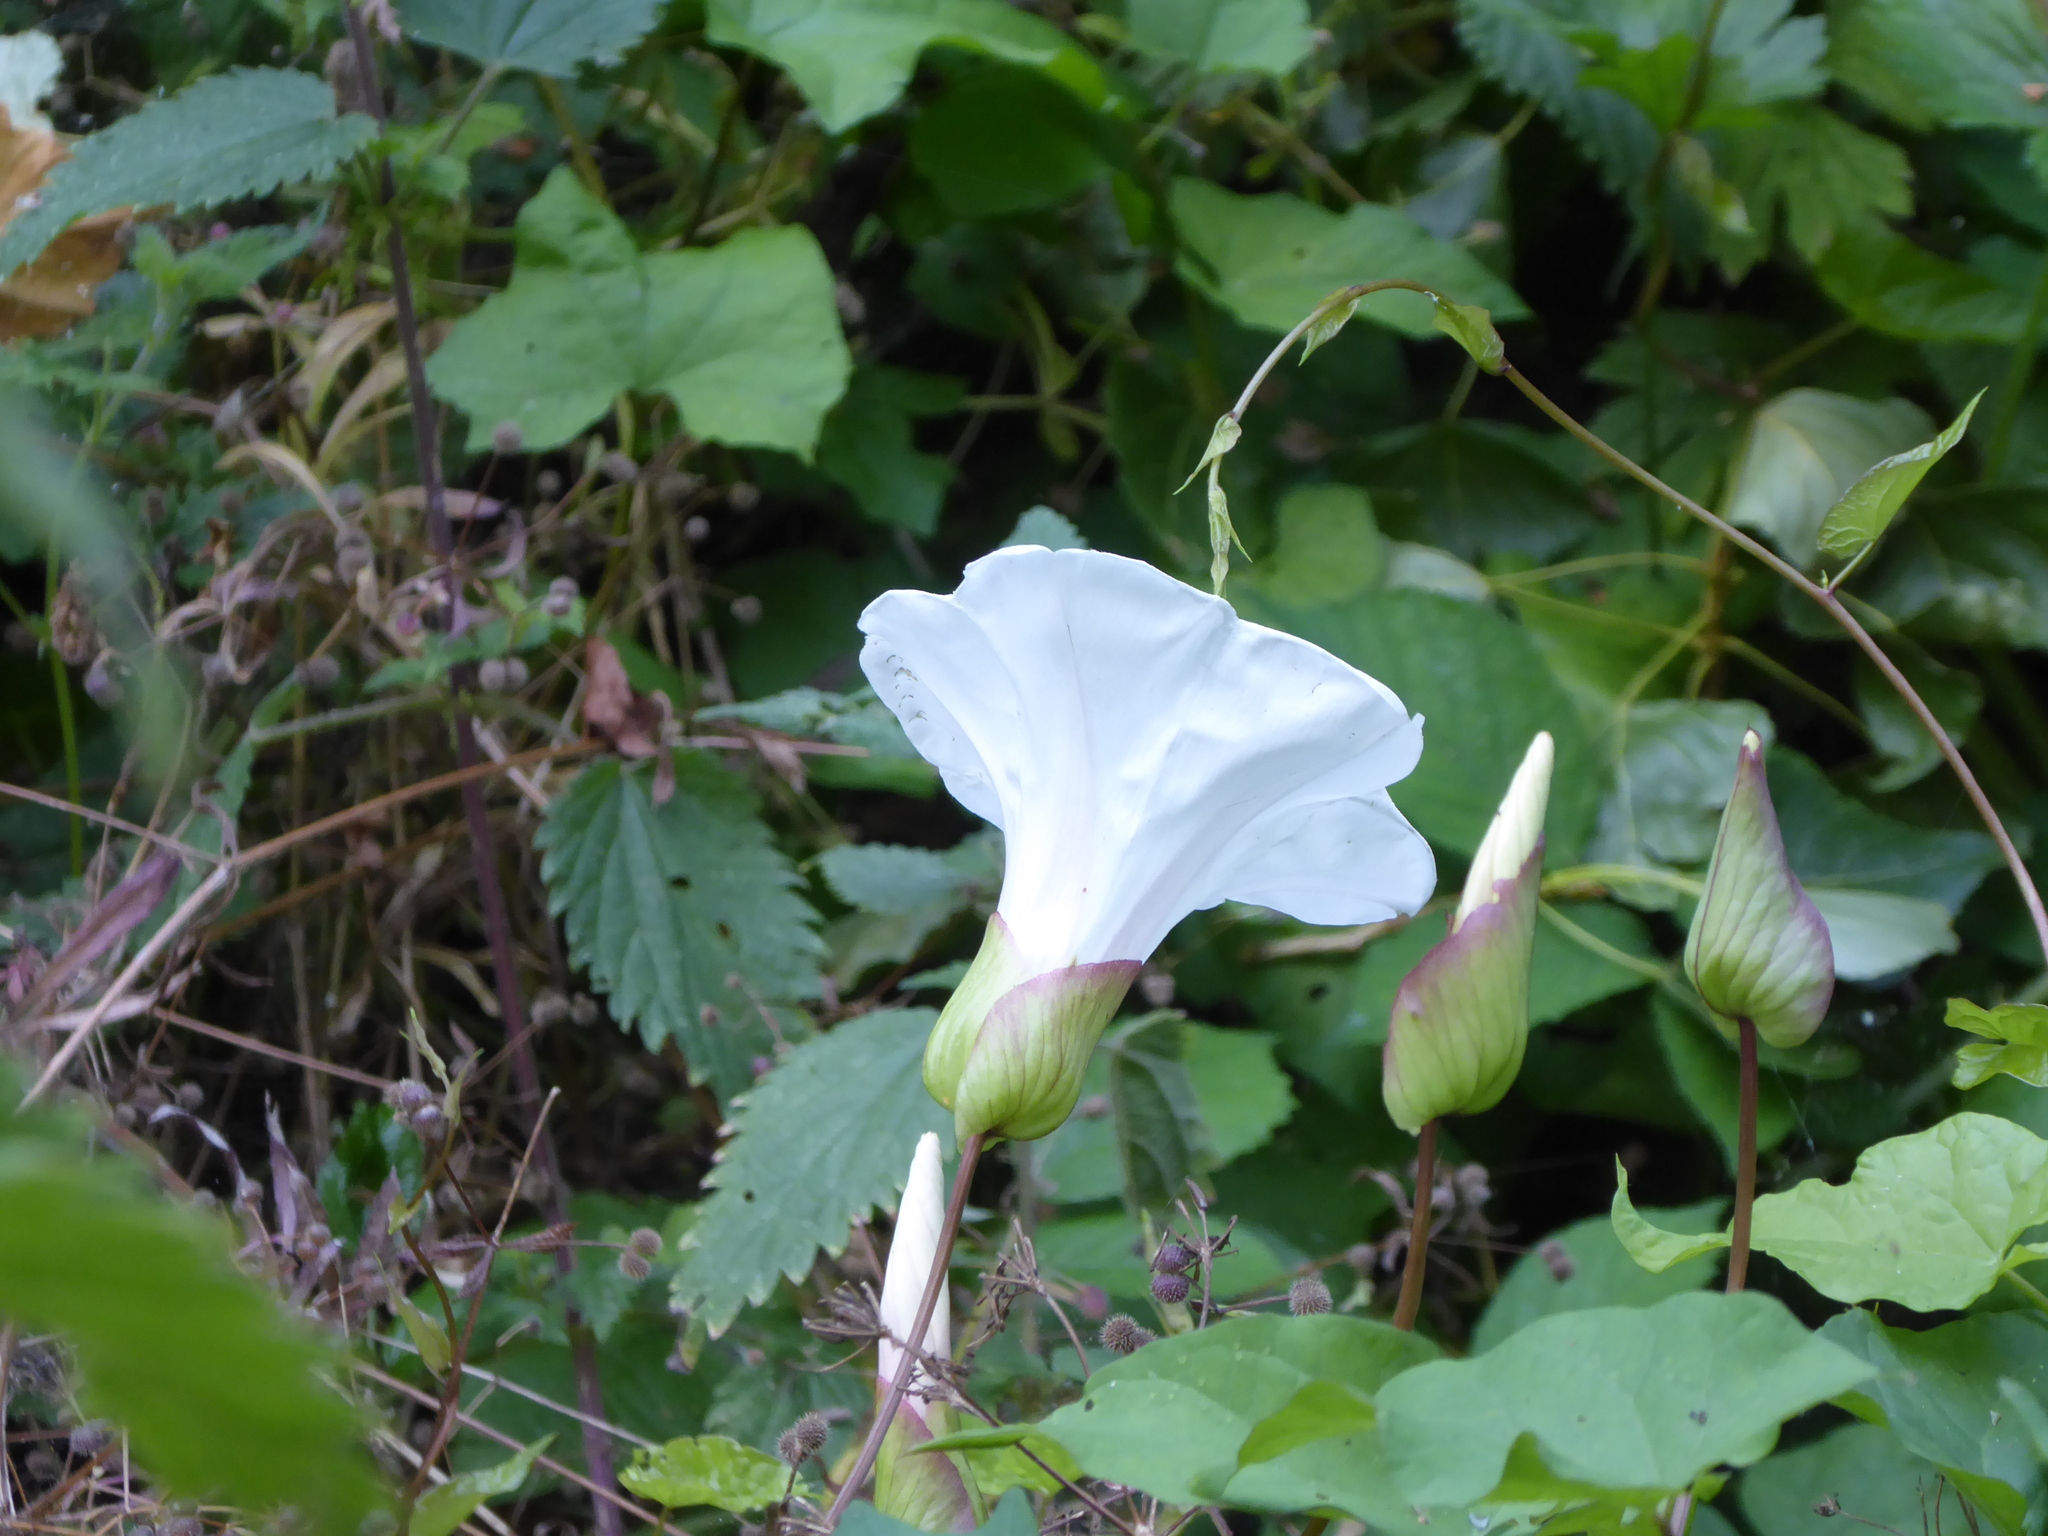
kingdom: Plantae
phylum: Tracheophyta
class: Magnoliopsida
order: Solanales
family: Convolvulaceae
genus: Calystegia
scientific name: Calystegia silvatica
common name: Large bindweed
